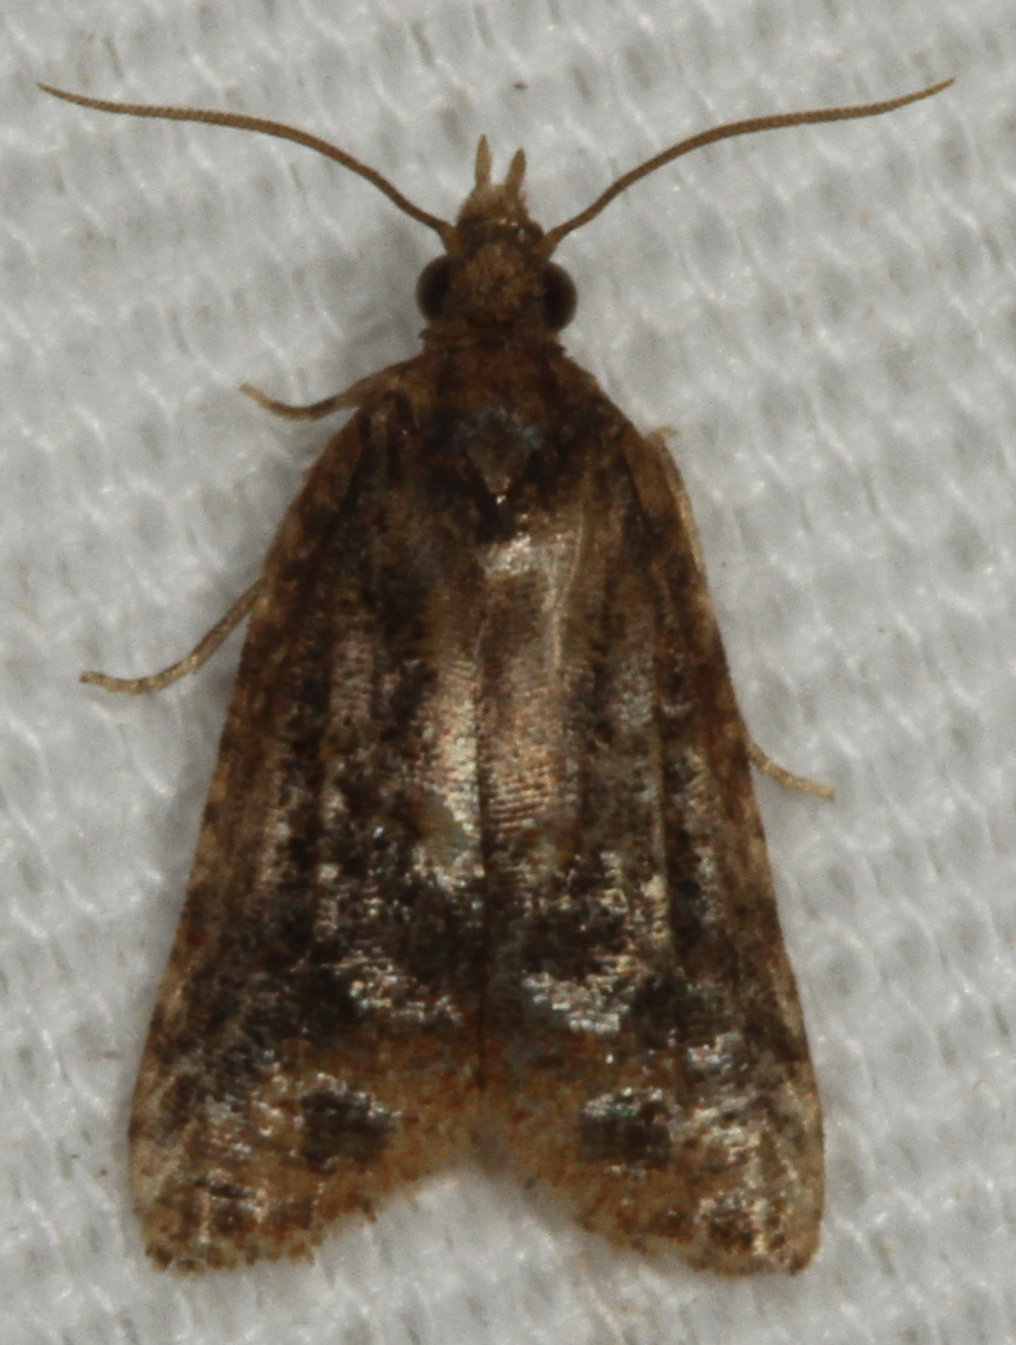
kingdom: Animalia
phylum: Arthropoda
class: Insecta
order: Lepidoptera
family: Tortricidae
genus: Platynota
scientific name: Platynota flavedana
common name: Black-shaded platynota moth
